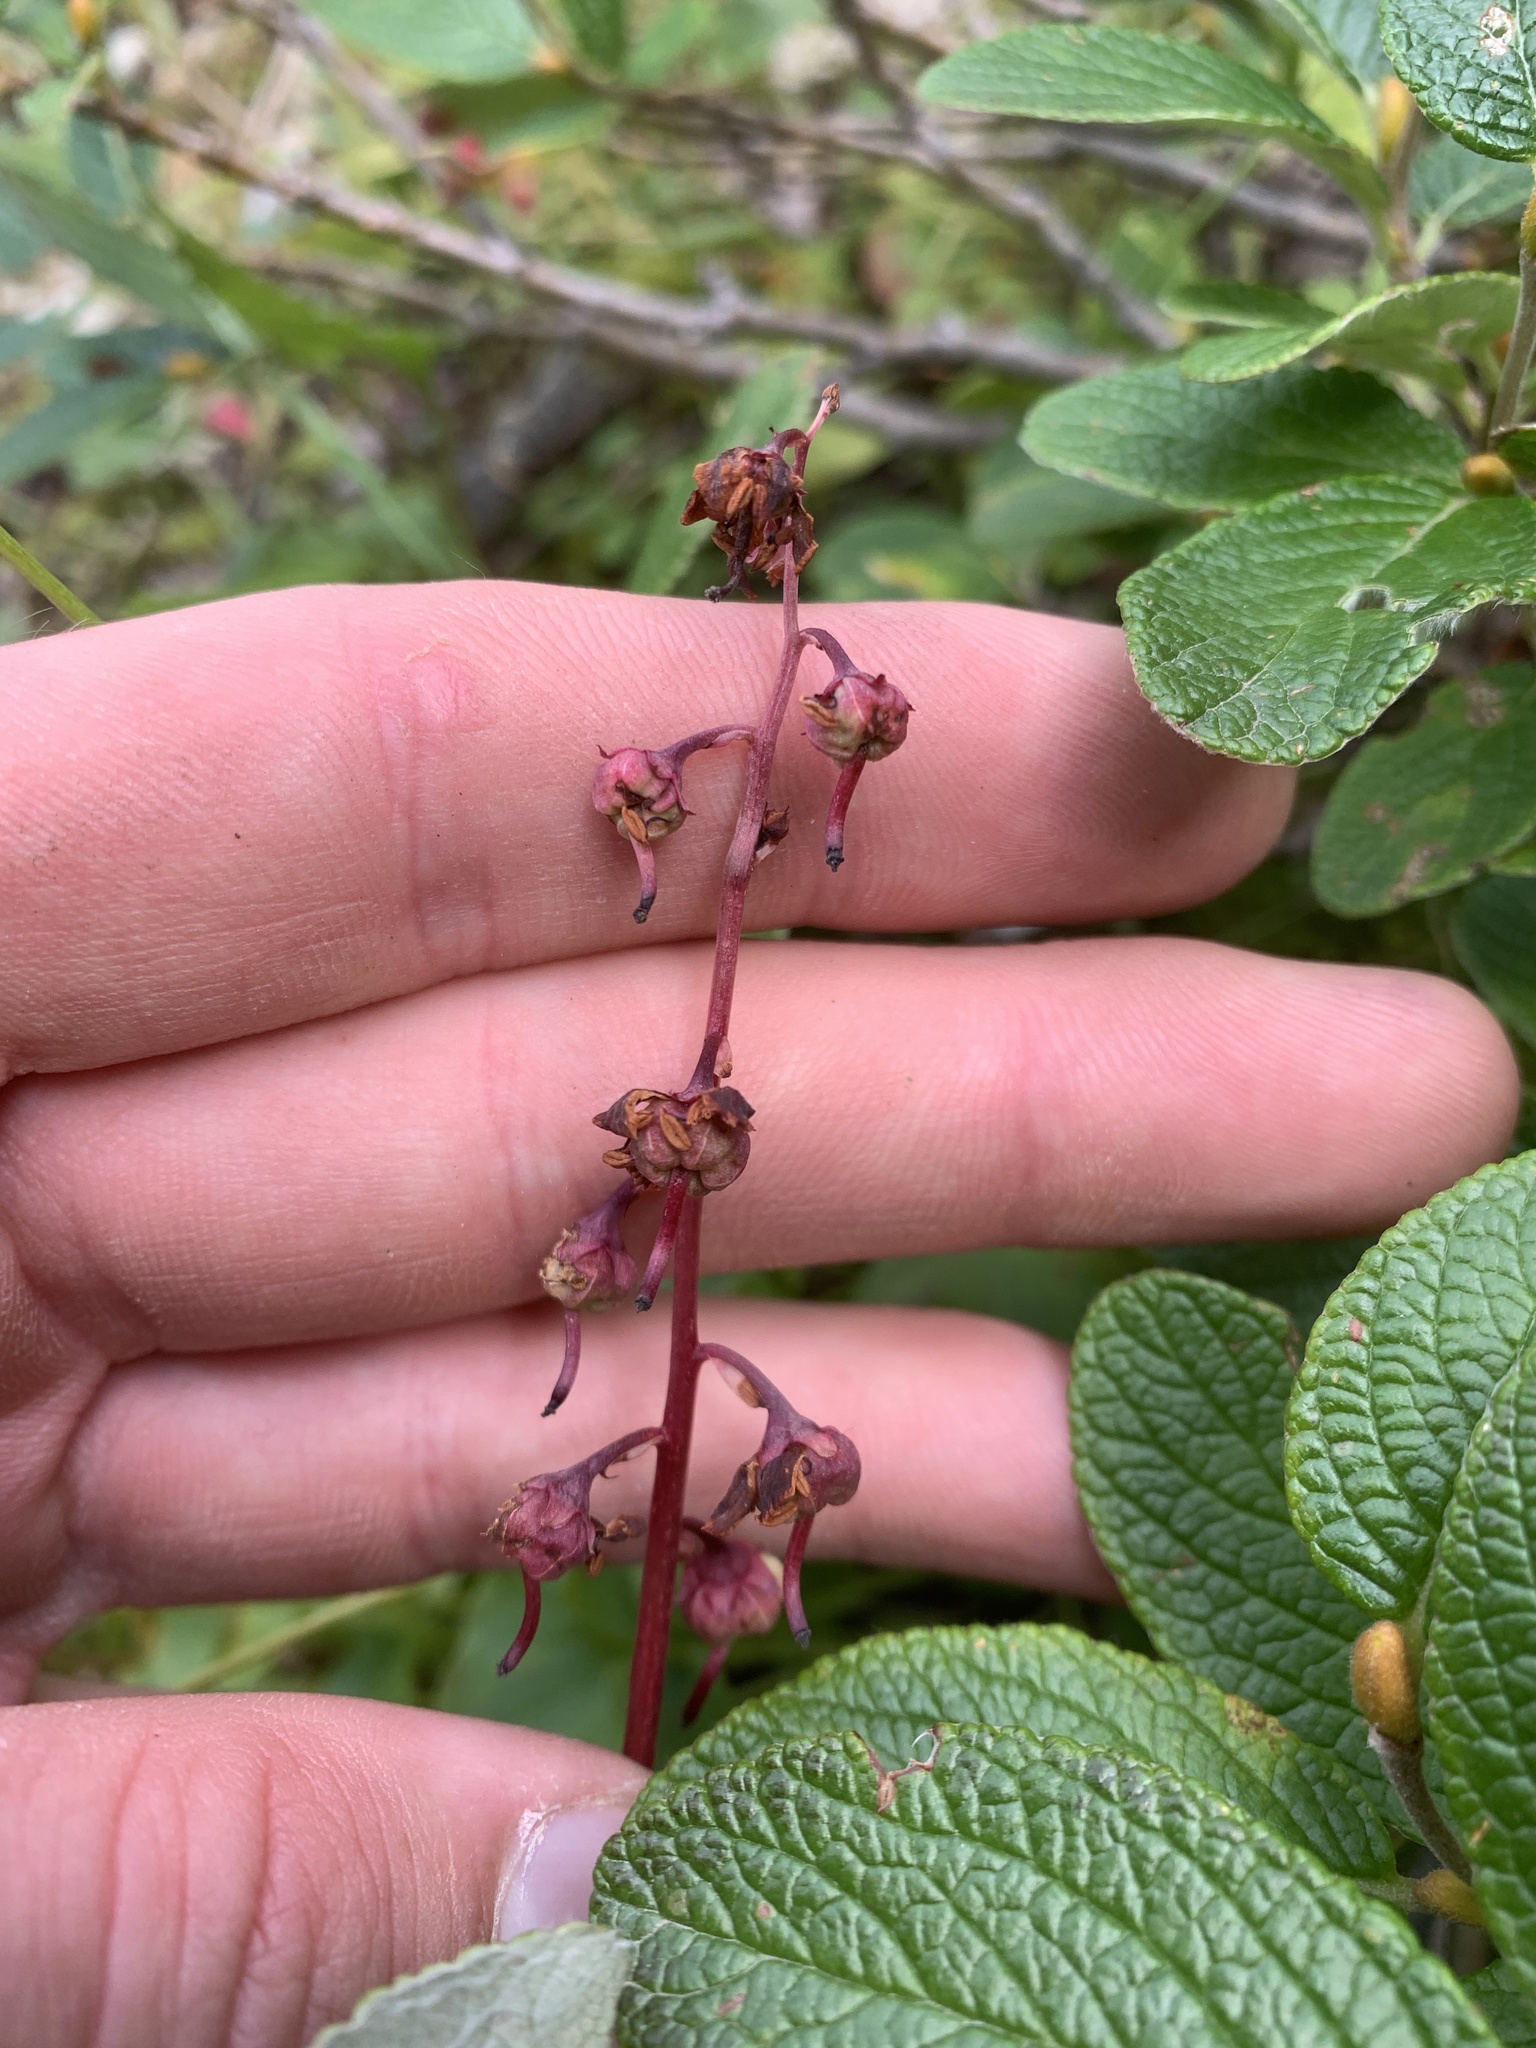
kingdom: Plantae
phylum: Tracheophyta
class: Magnoliopsida
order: Ericales
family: Ericaceae
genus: Pyrola
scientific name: Pyrola asarifolia
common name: Bog wintergreen
